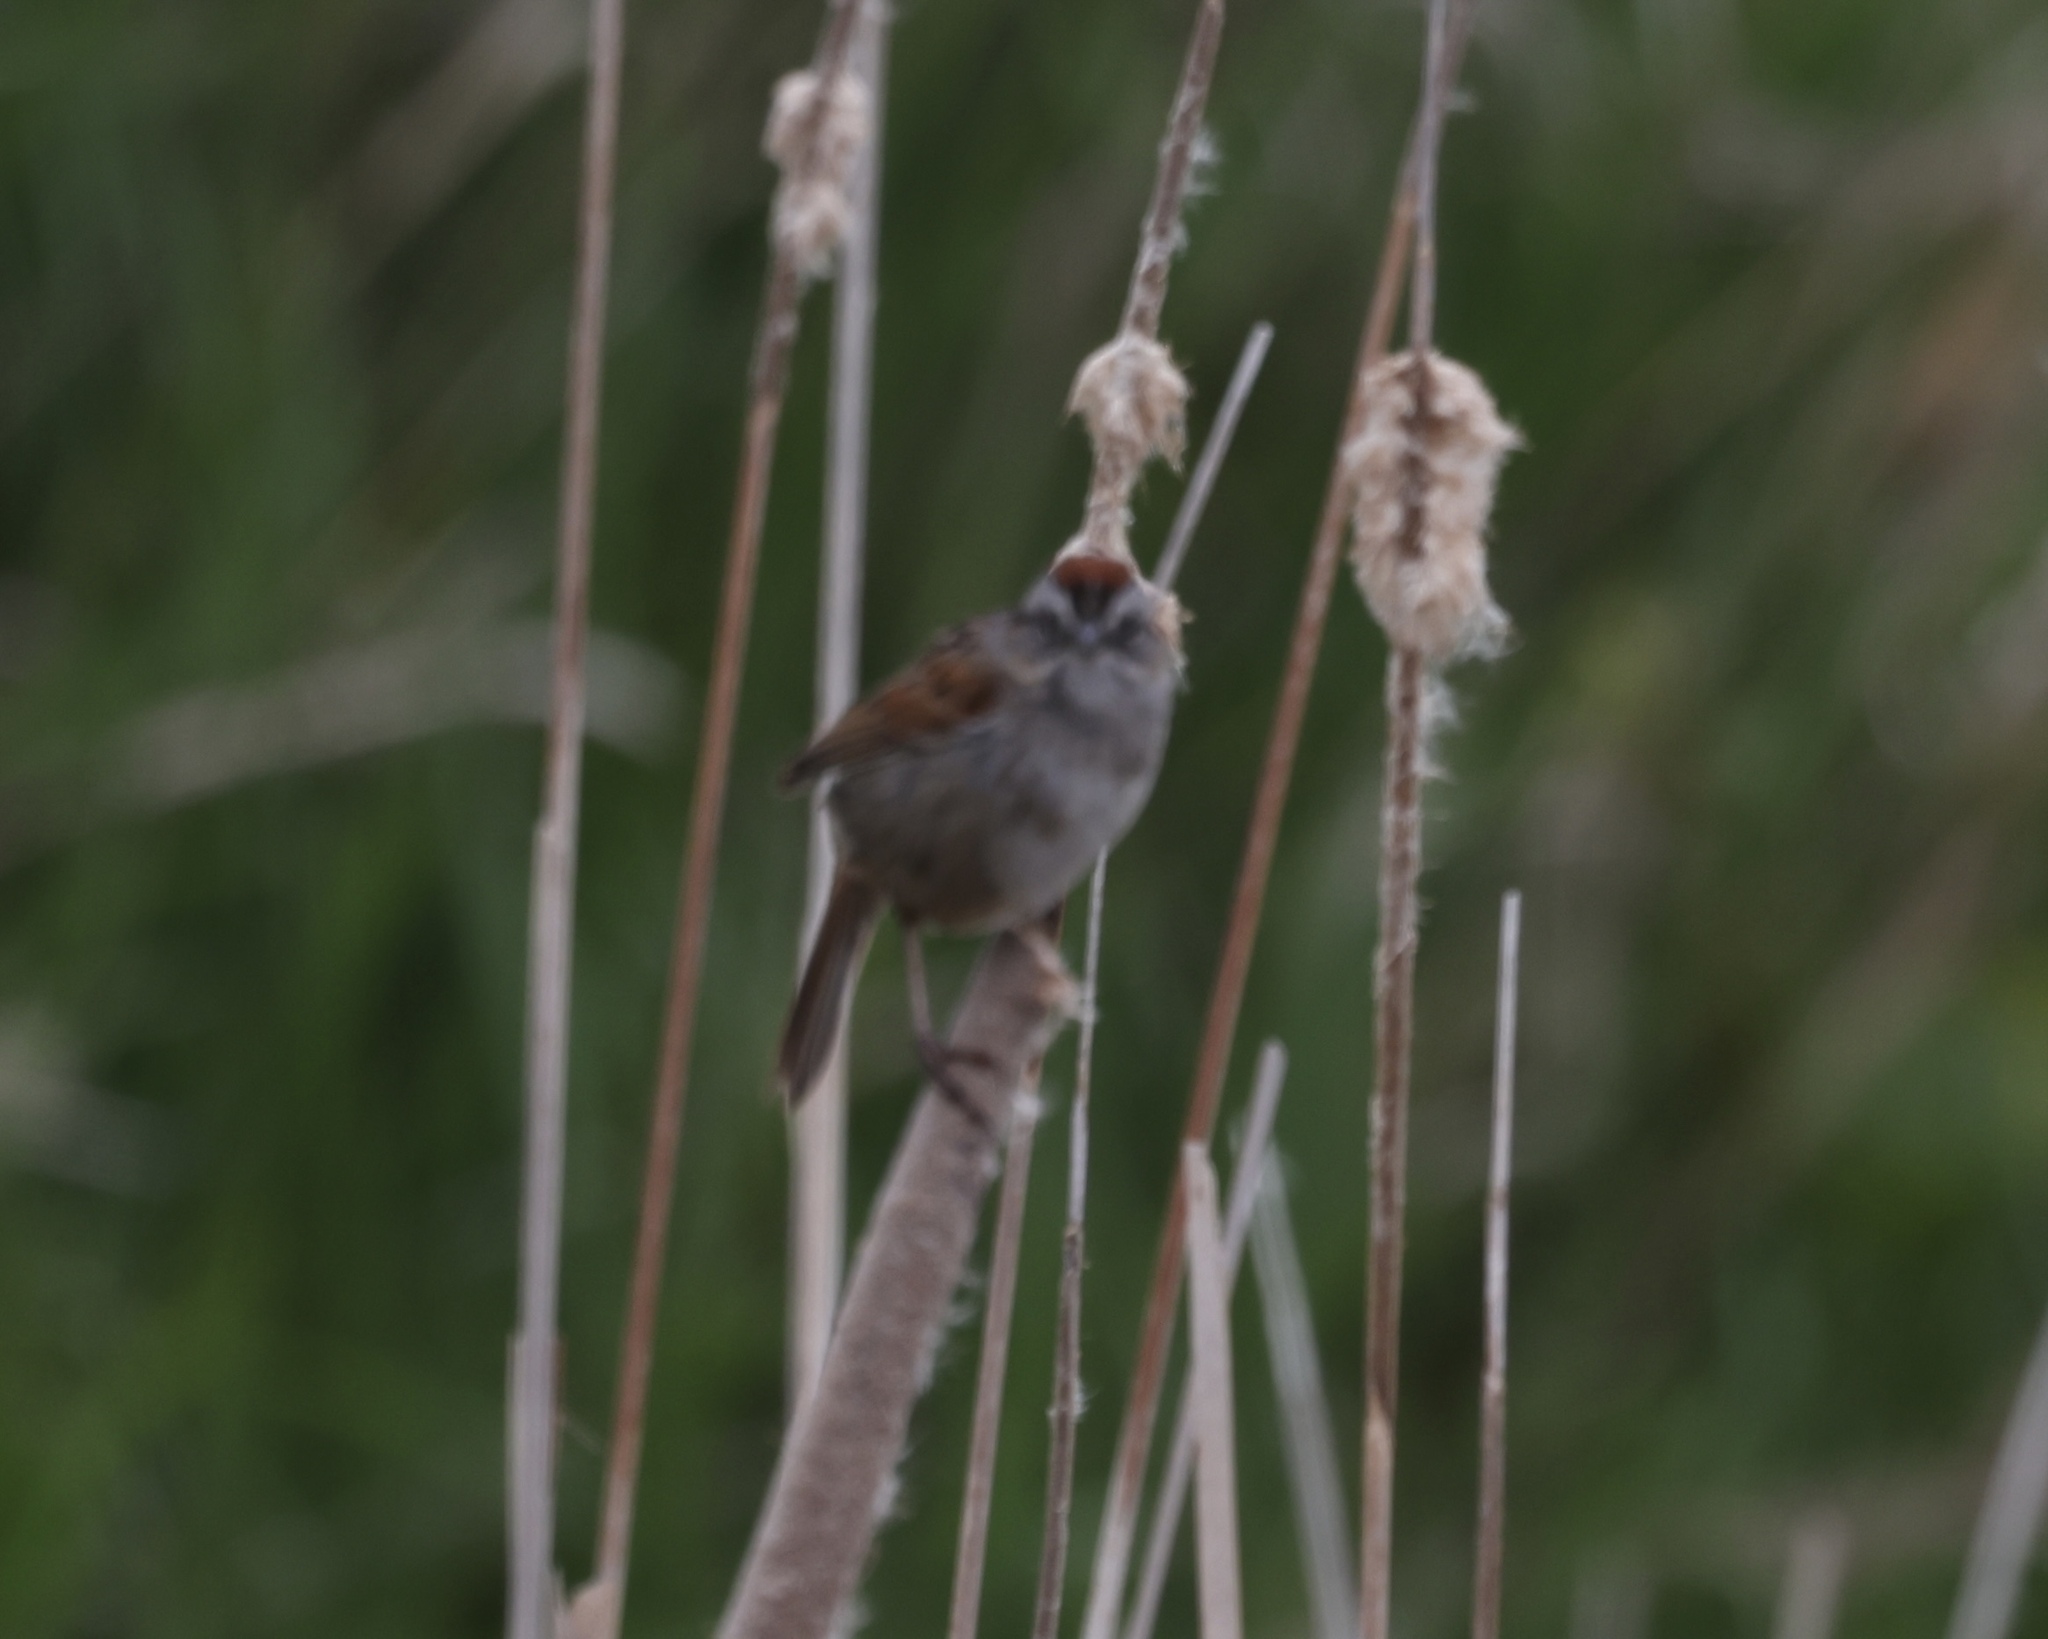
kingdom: Animalia
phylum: Chordata
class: Aves
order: Passeriformes
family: Passerellidae
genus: Melospiza
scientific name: Melospiza georgiana
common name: Swamp sparrow
